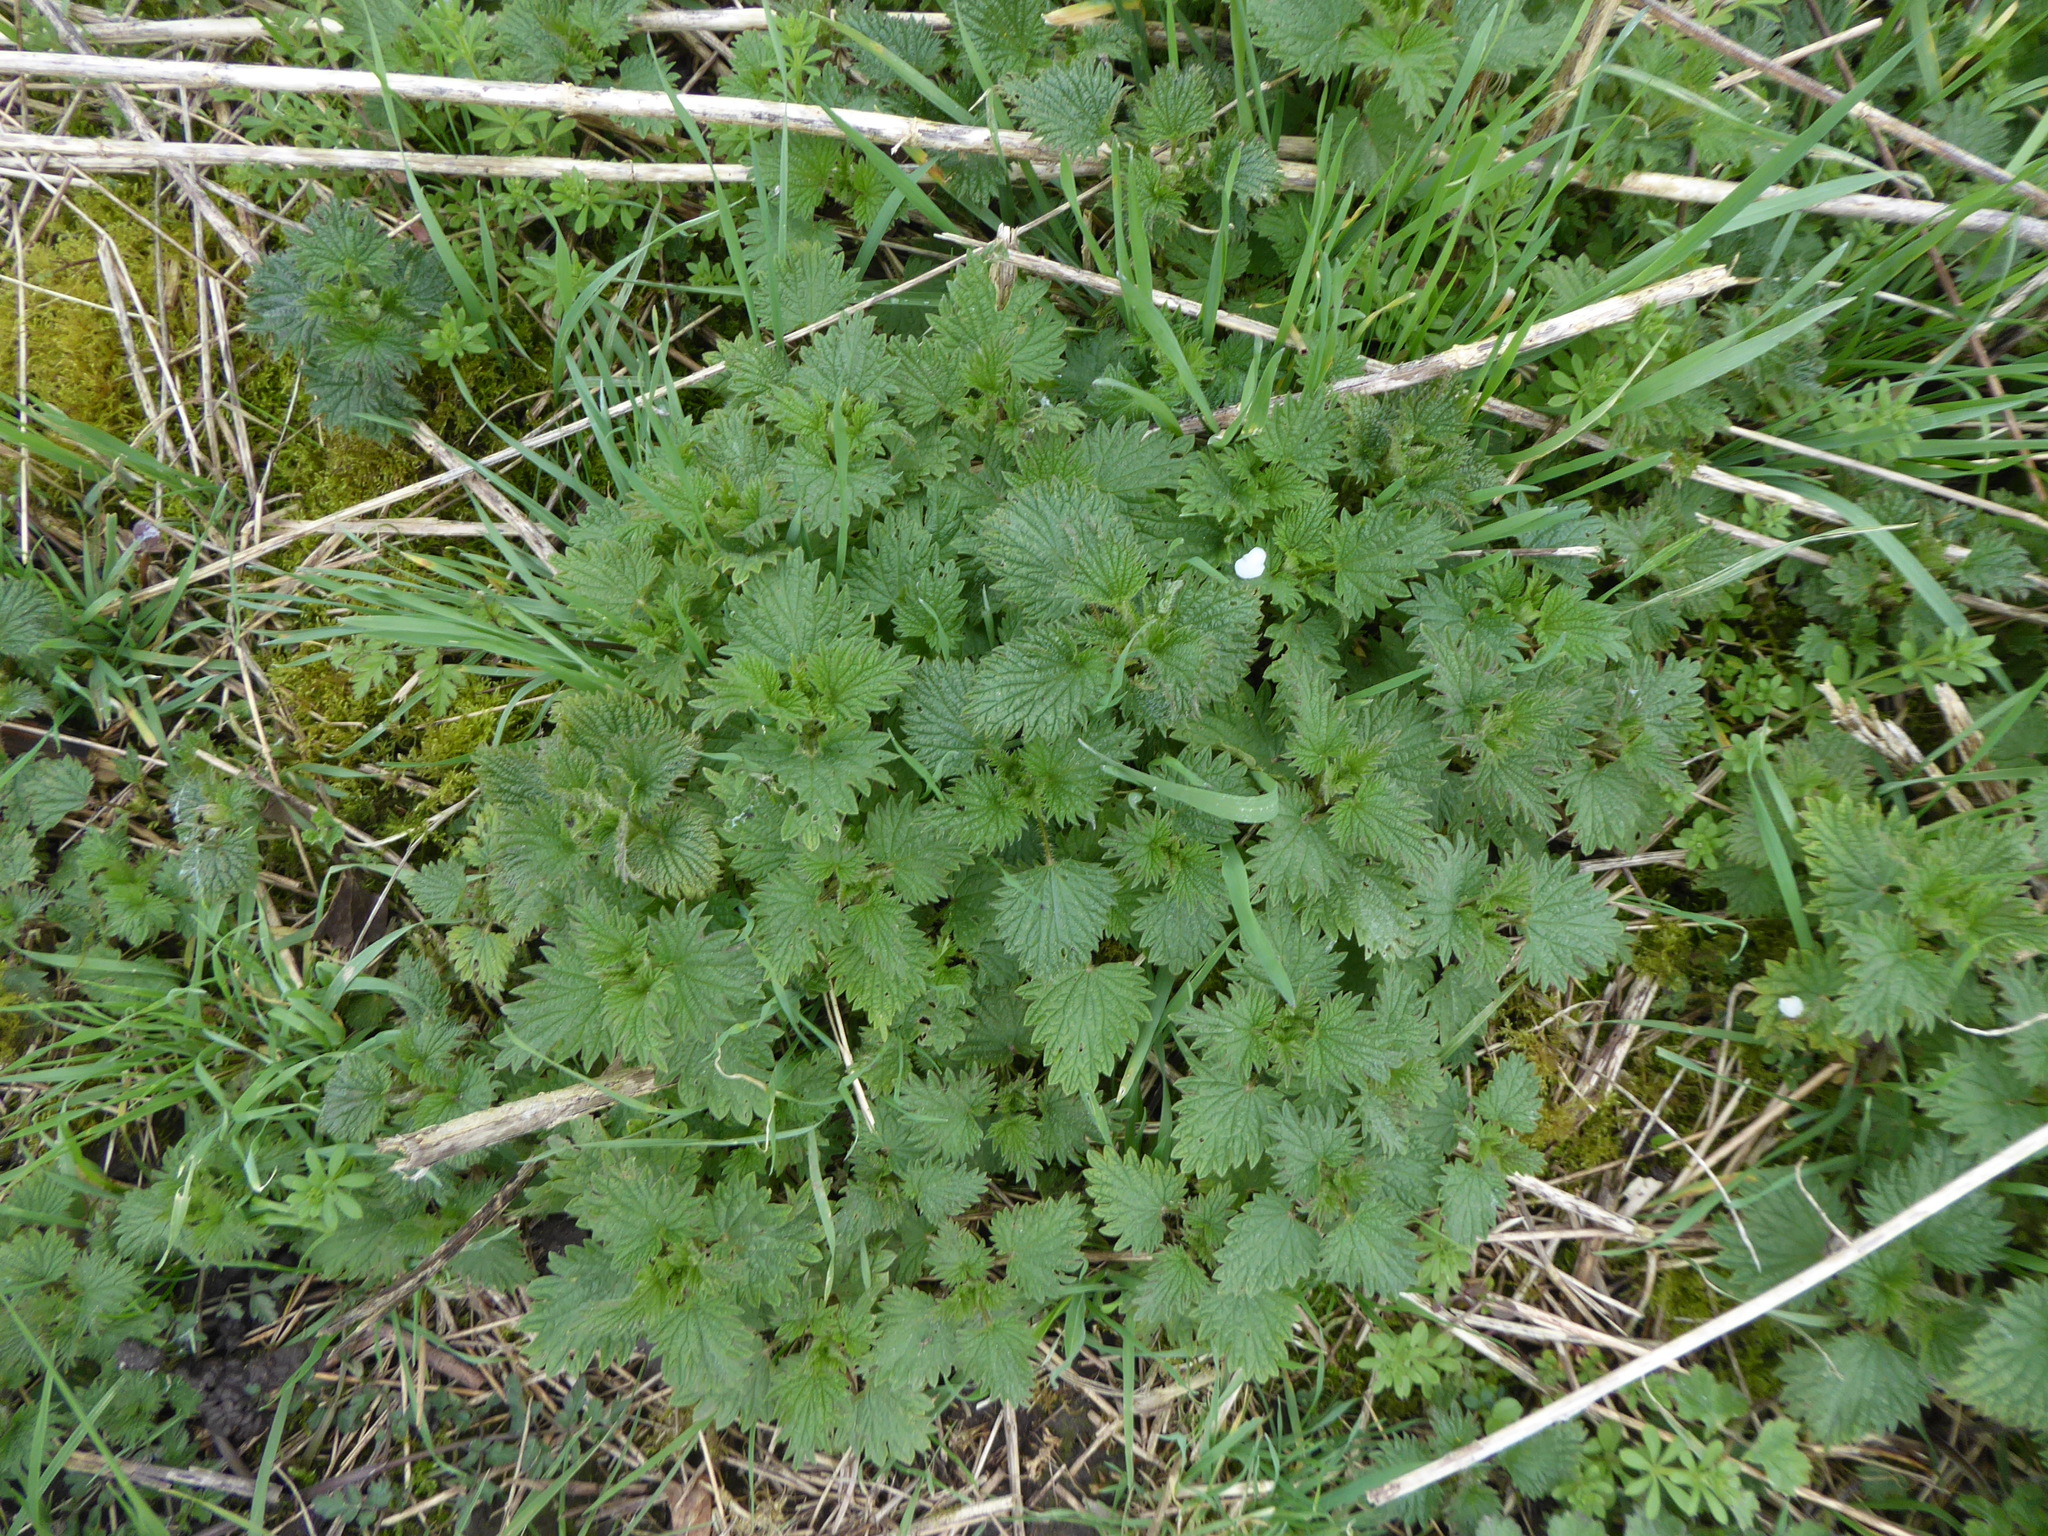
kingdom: Plantae
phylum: Tracheophyta
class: Magnoliopsida
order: Rosales
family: Urticaceae
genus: Urtica
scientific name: Urtica dioica
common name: Common nettle
